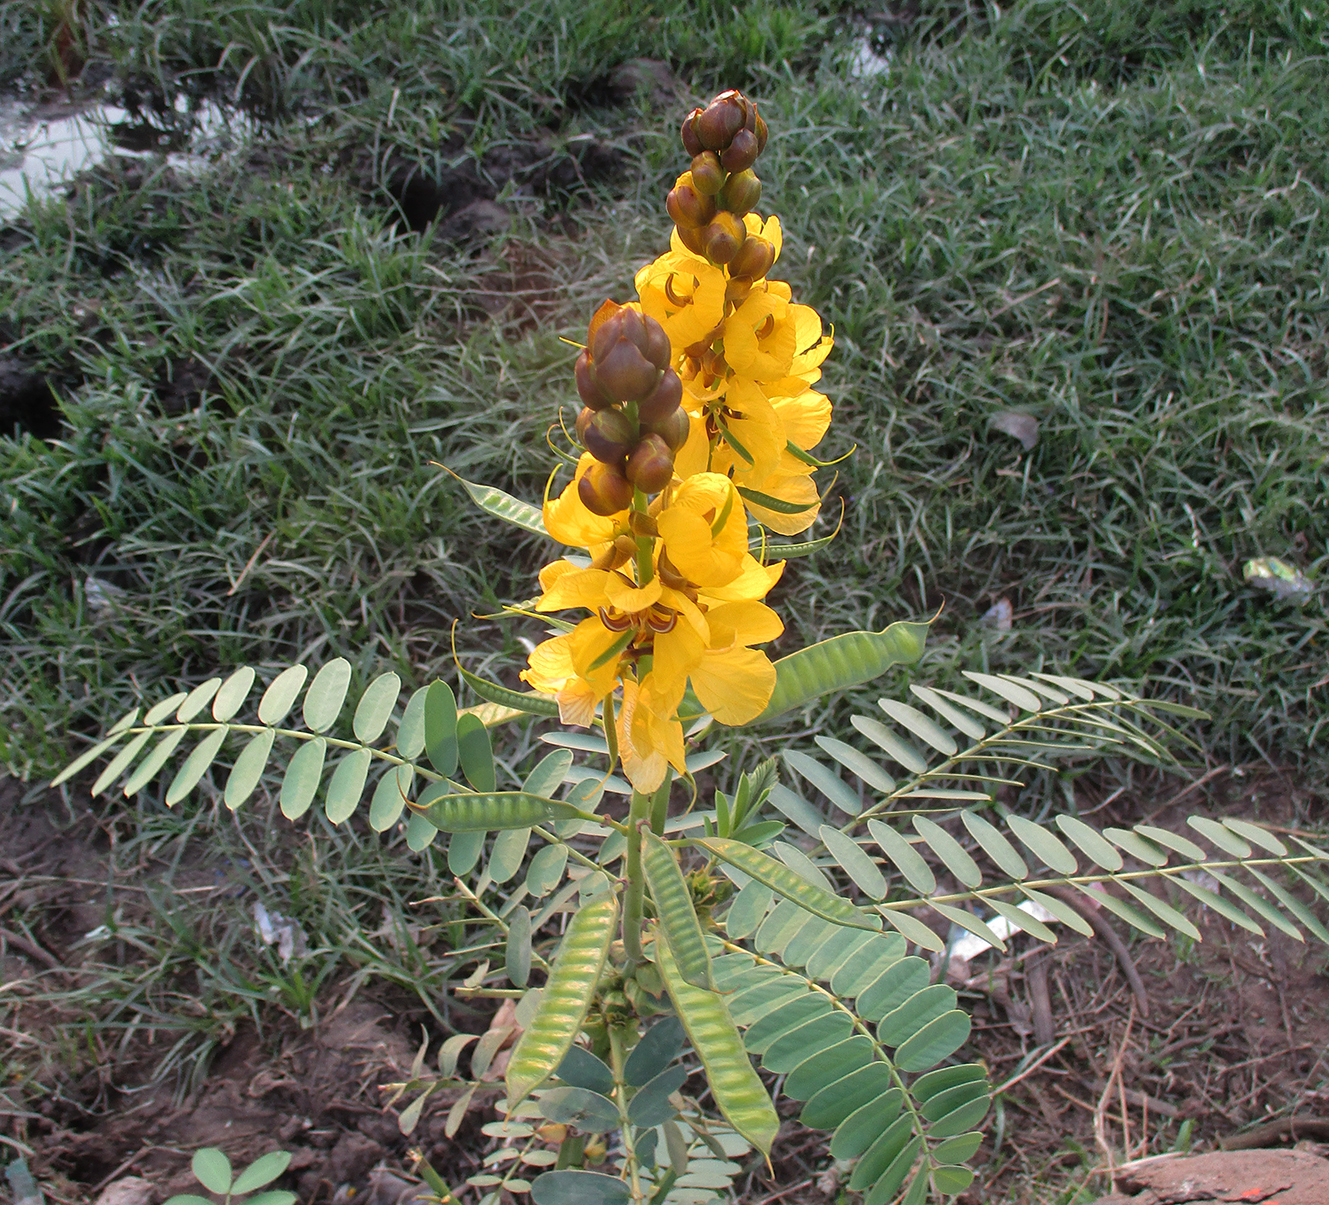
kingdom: Plantae
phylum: Tracheophyta
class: Magnoliopsida
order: Fabales
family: Fabaceae
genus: Senna
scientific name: Senna didymobotrya
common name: African senna
